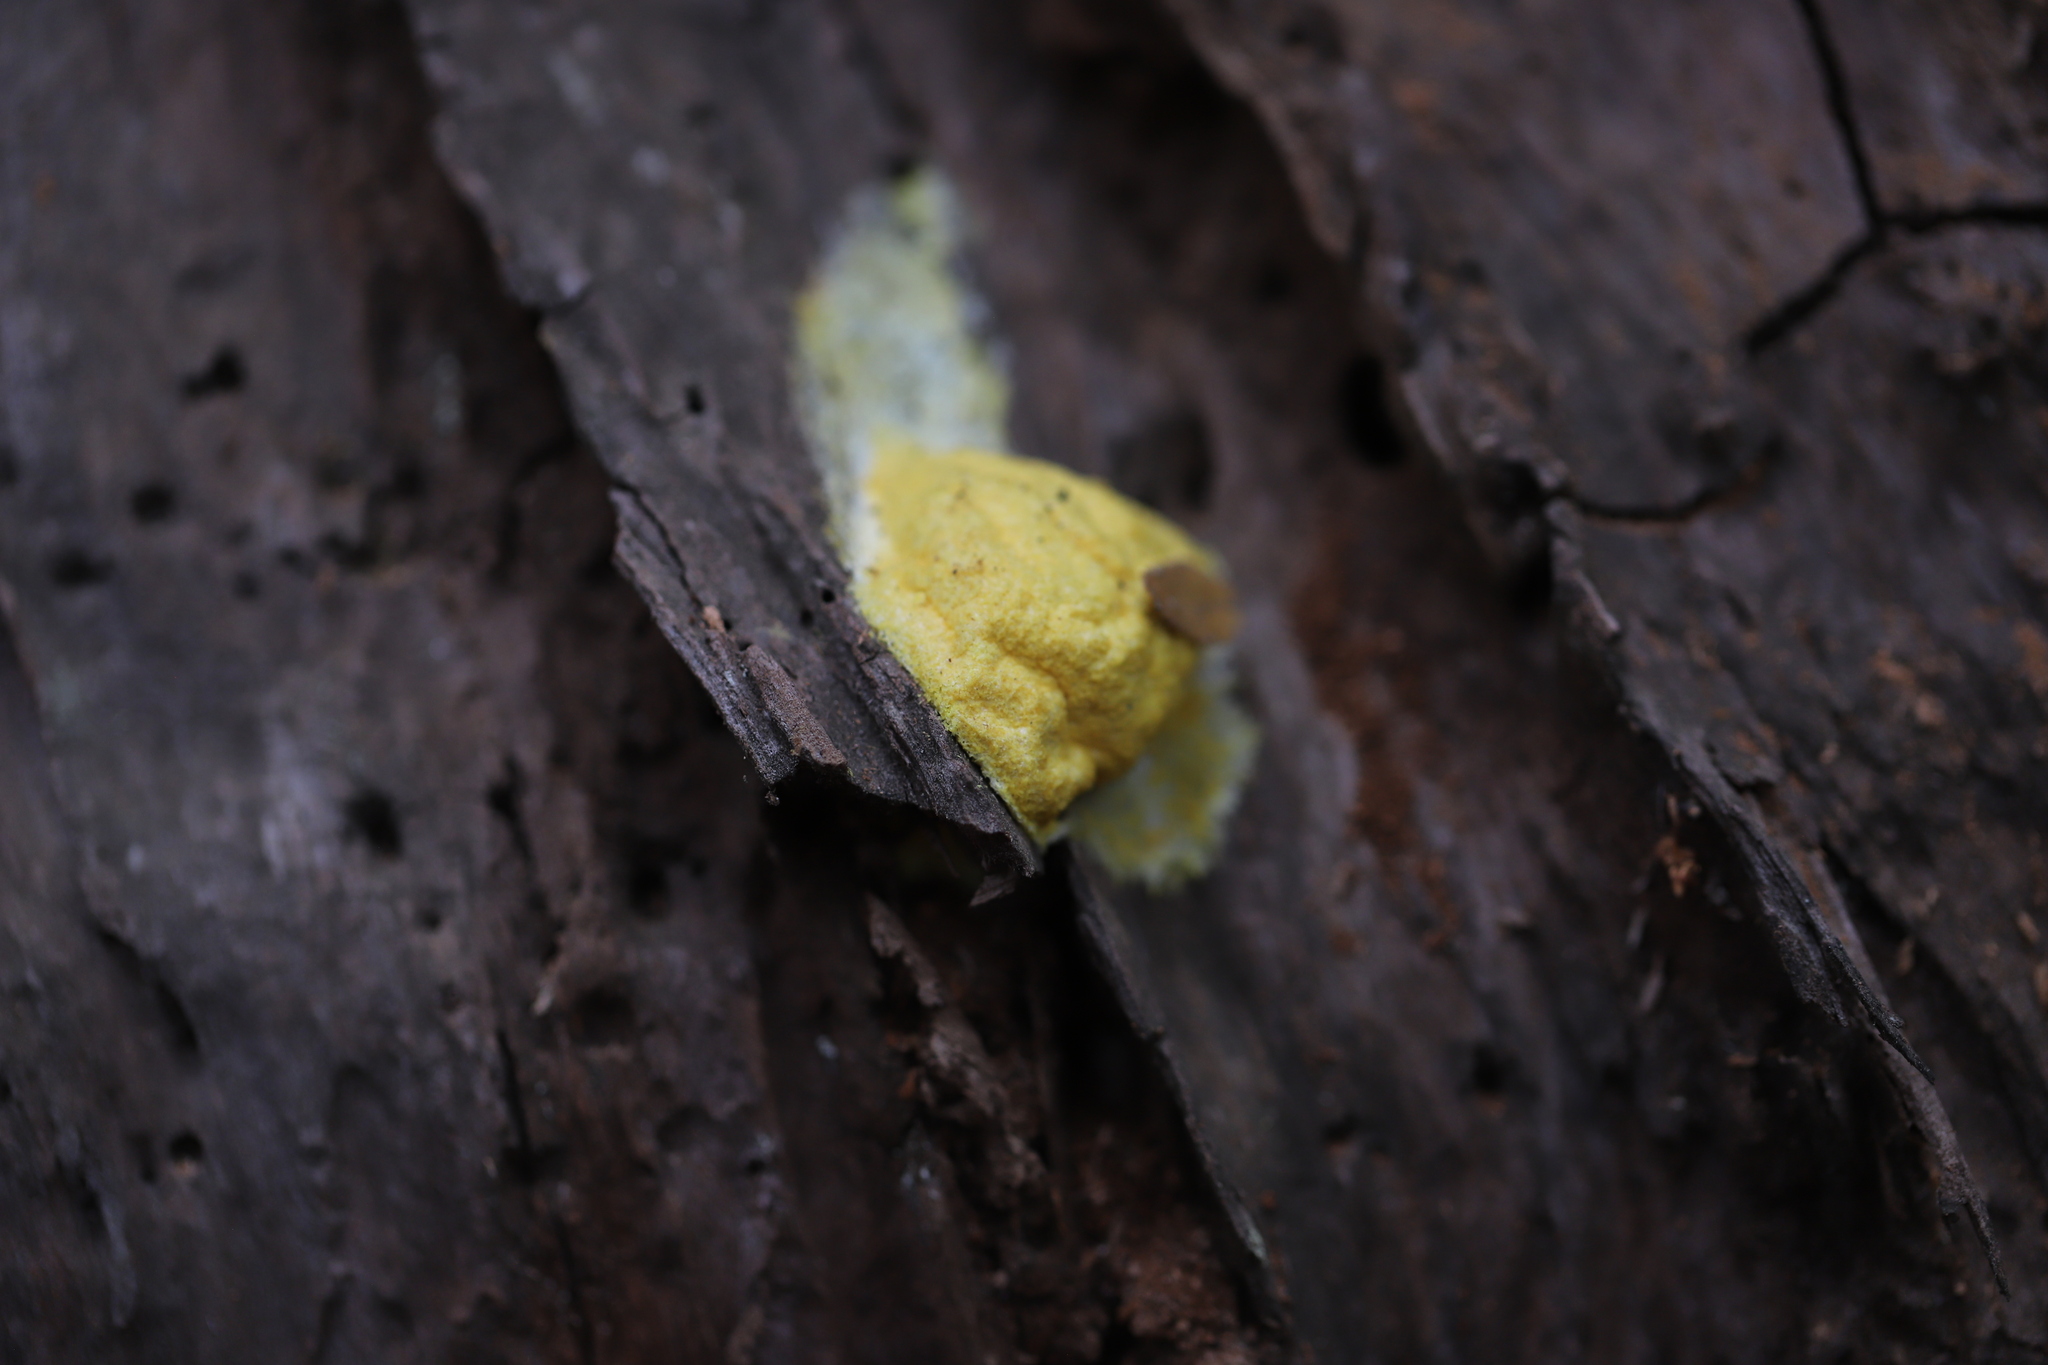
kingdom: Protozoa
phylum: Mycetozoa
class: Myxomycetes
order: Physarales
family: Physaraceae
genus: Fuligo
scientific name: Fuligo septica
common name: Dog vomit slime mold
